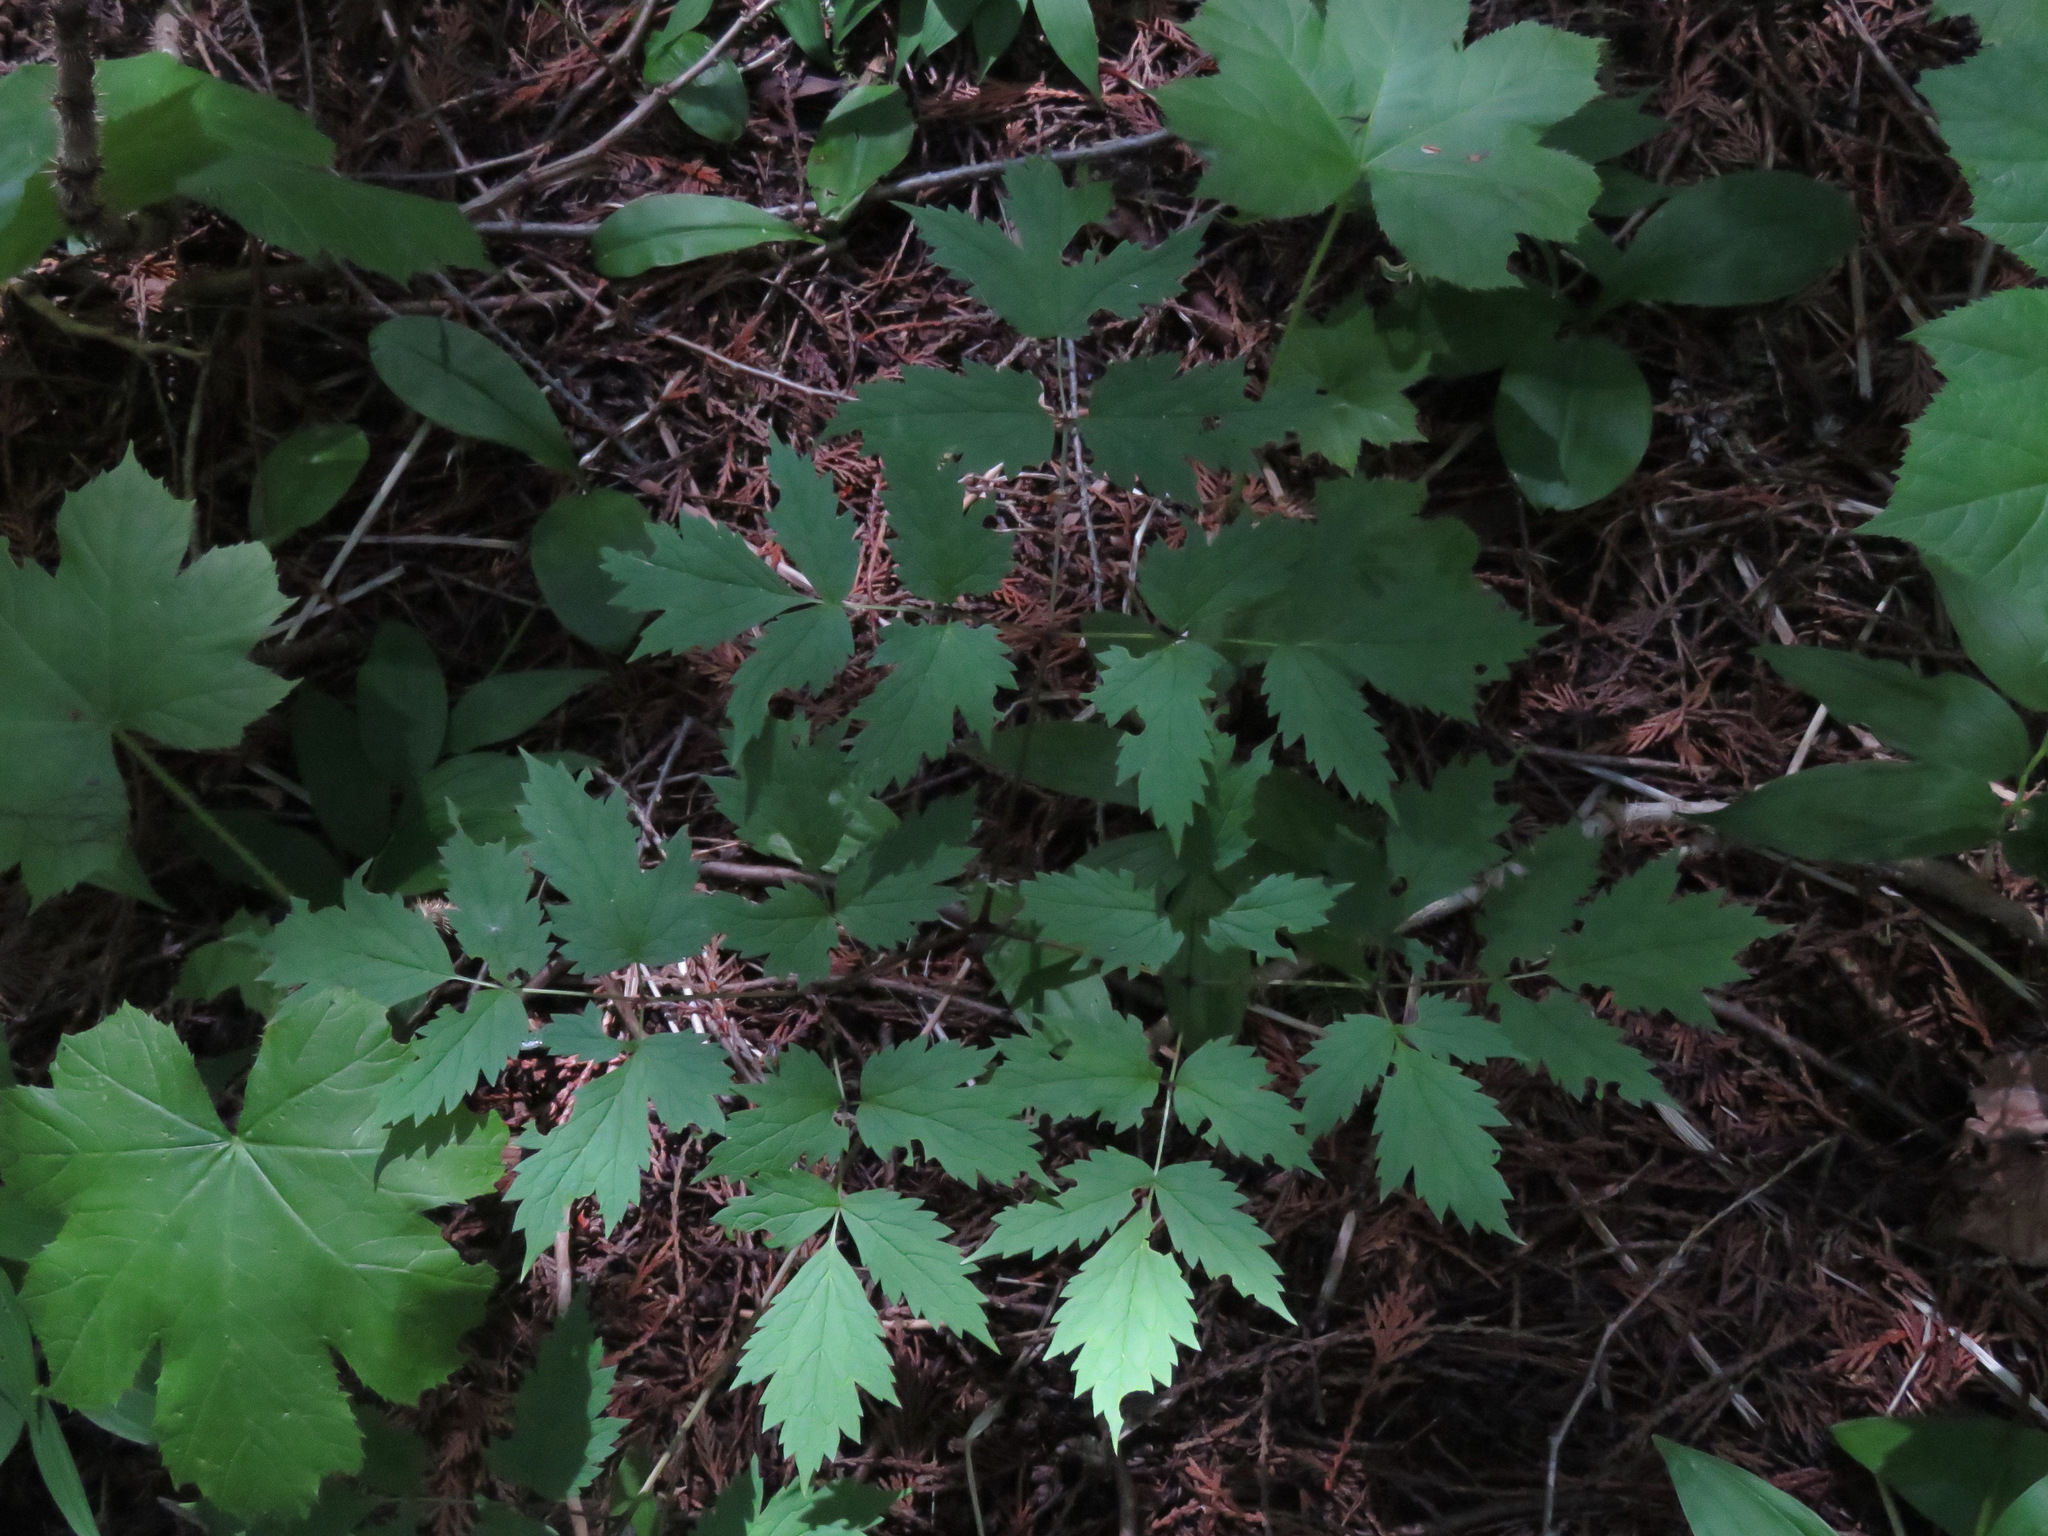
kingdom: Plantae
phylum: Tracheophyta
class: Magnoliopsida
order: Ranunculales
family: Ranunculaceae
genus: Actaea
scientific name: Actaea rubra
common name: Red baneberry
